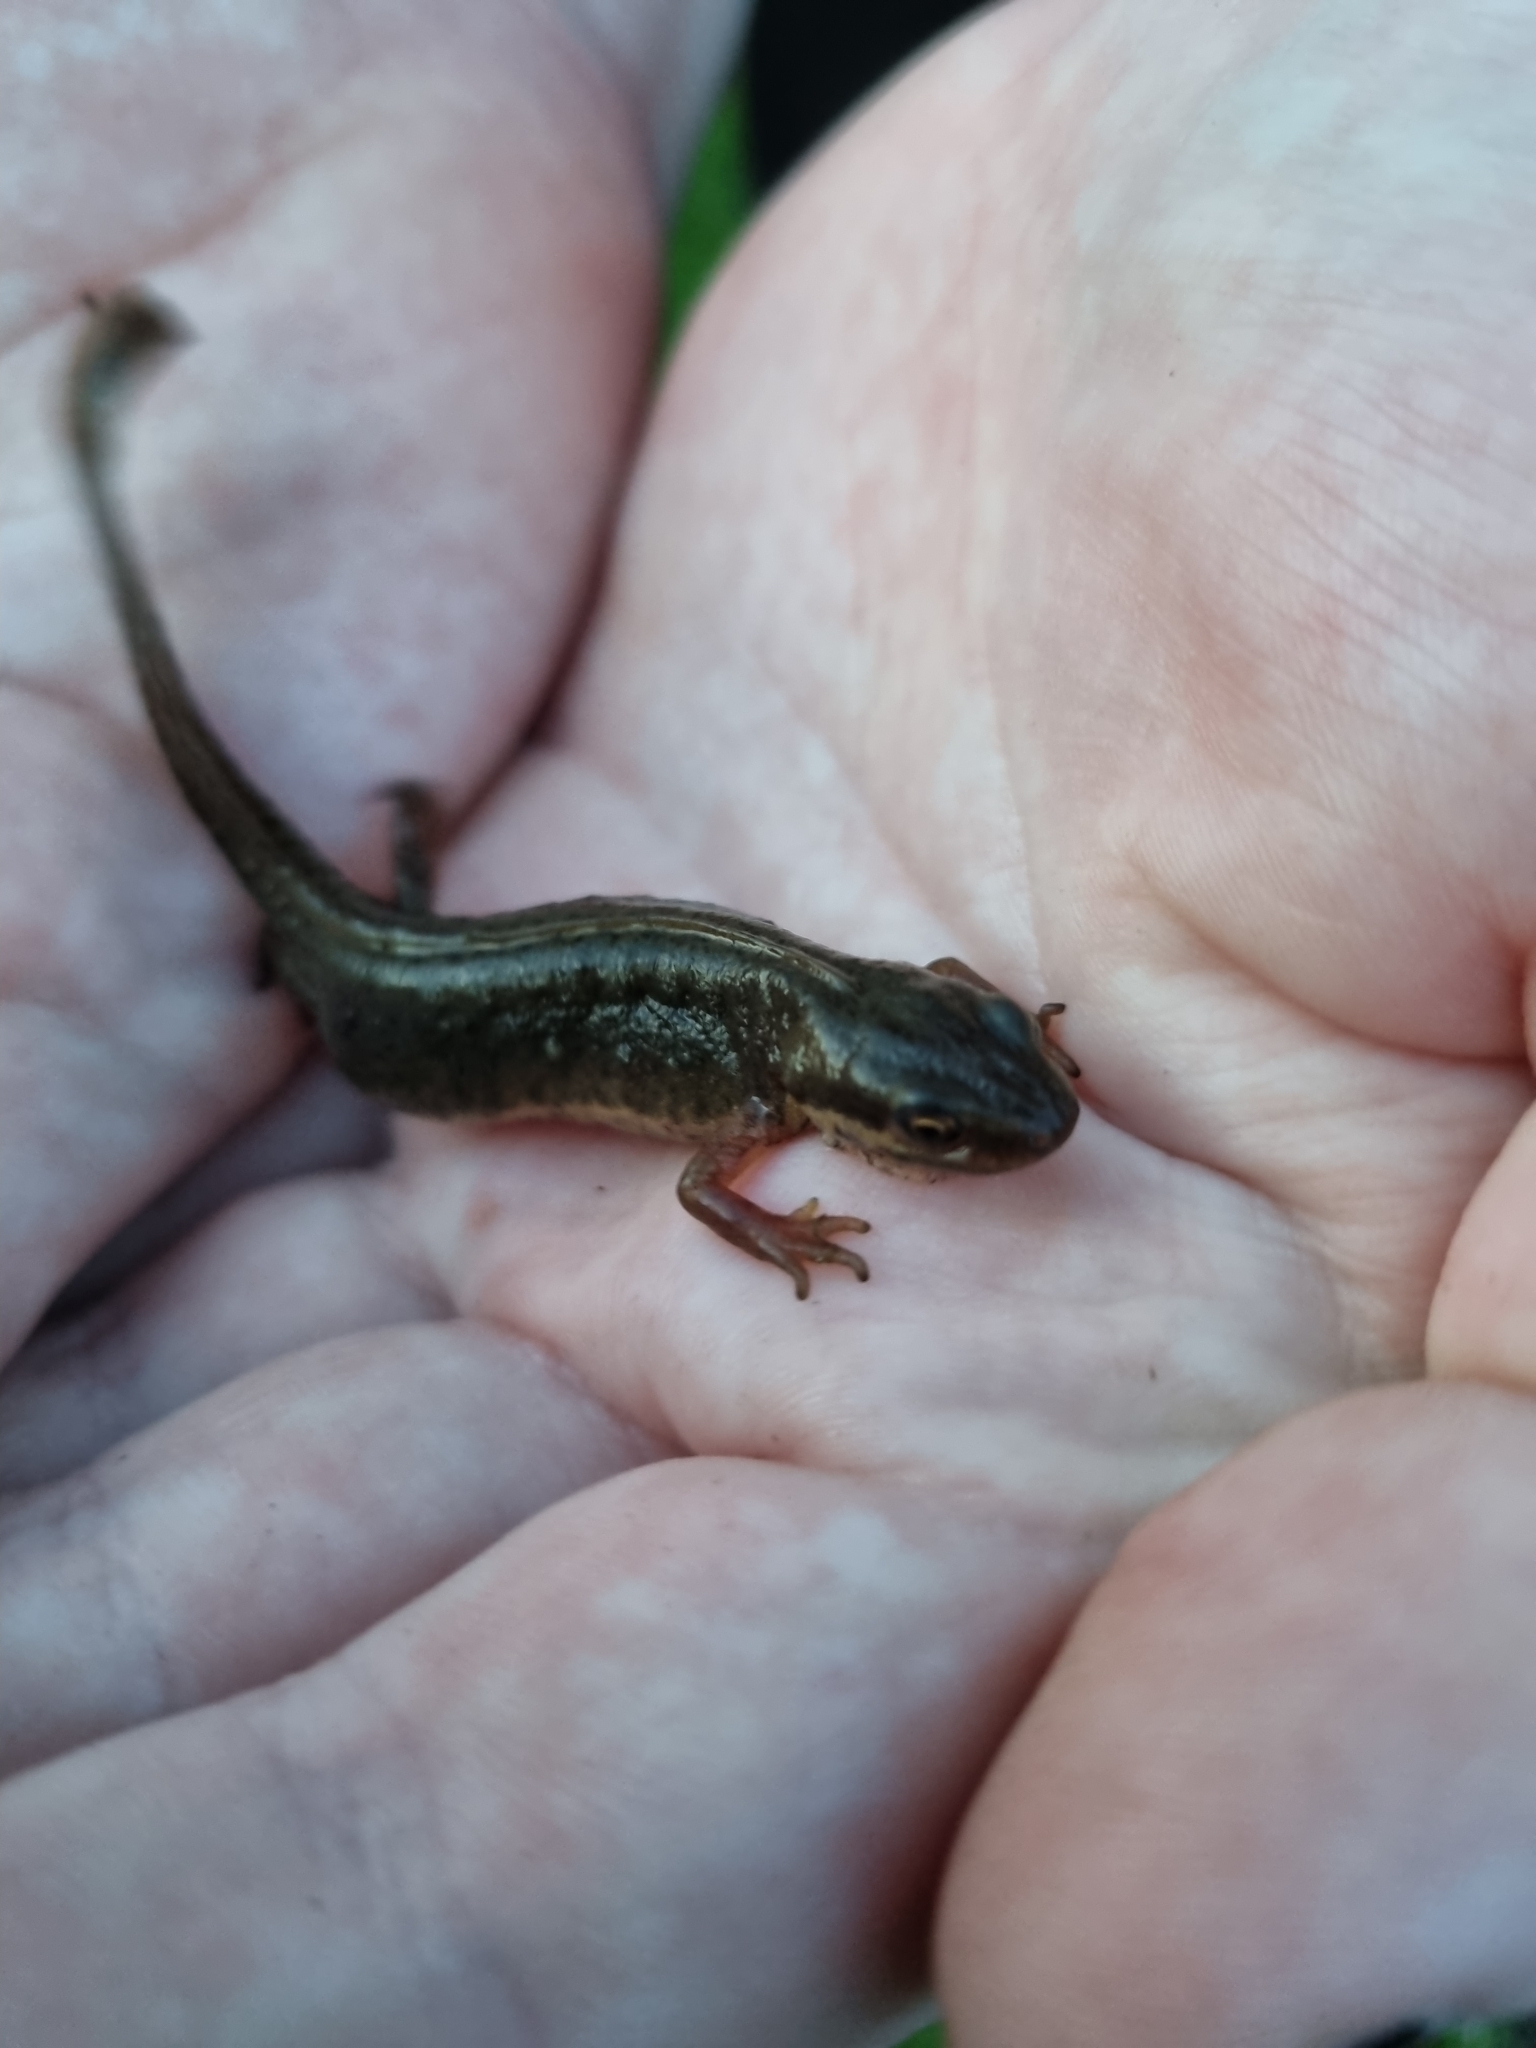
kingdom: Animalia
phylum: Chordata
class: Amphibia
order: Caudata
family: Salamandridae
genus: Lissotriton
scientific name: Lissotriton vulgaris
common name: Smooth newt
